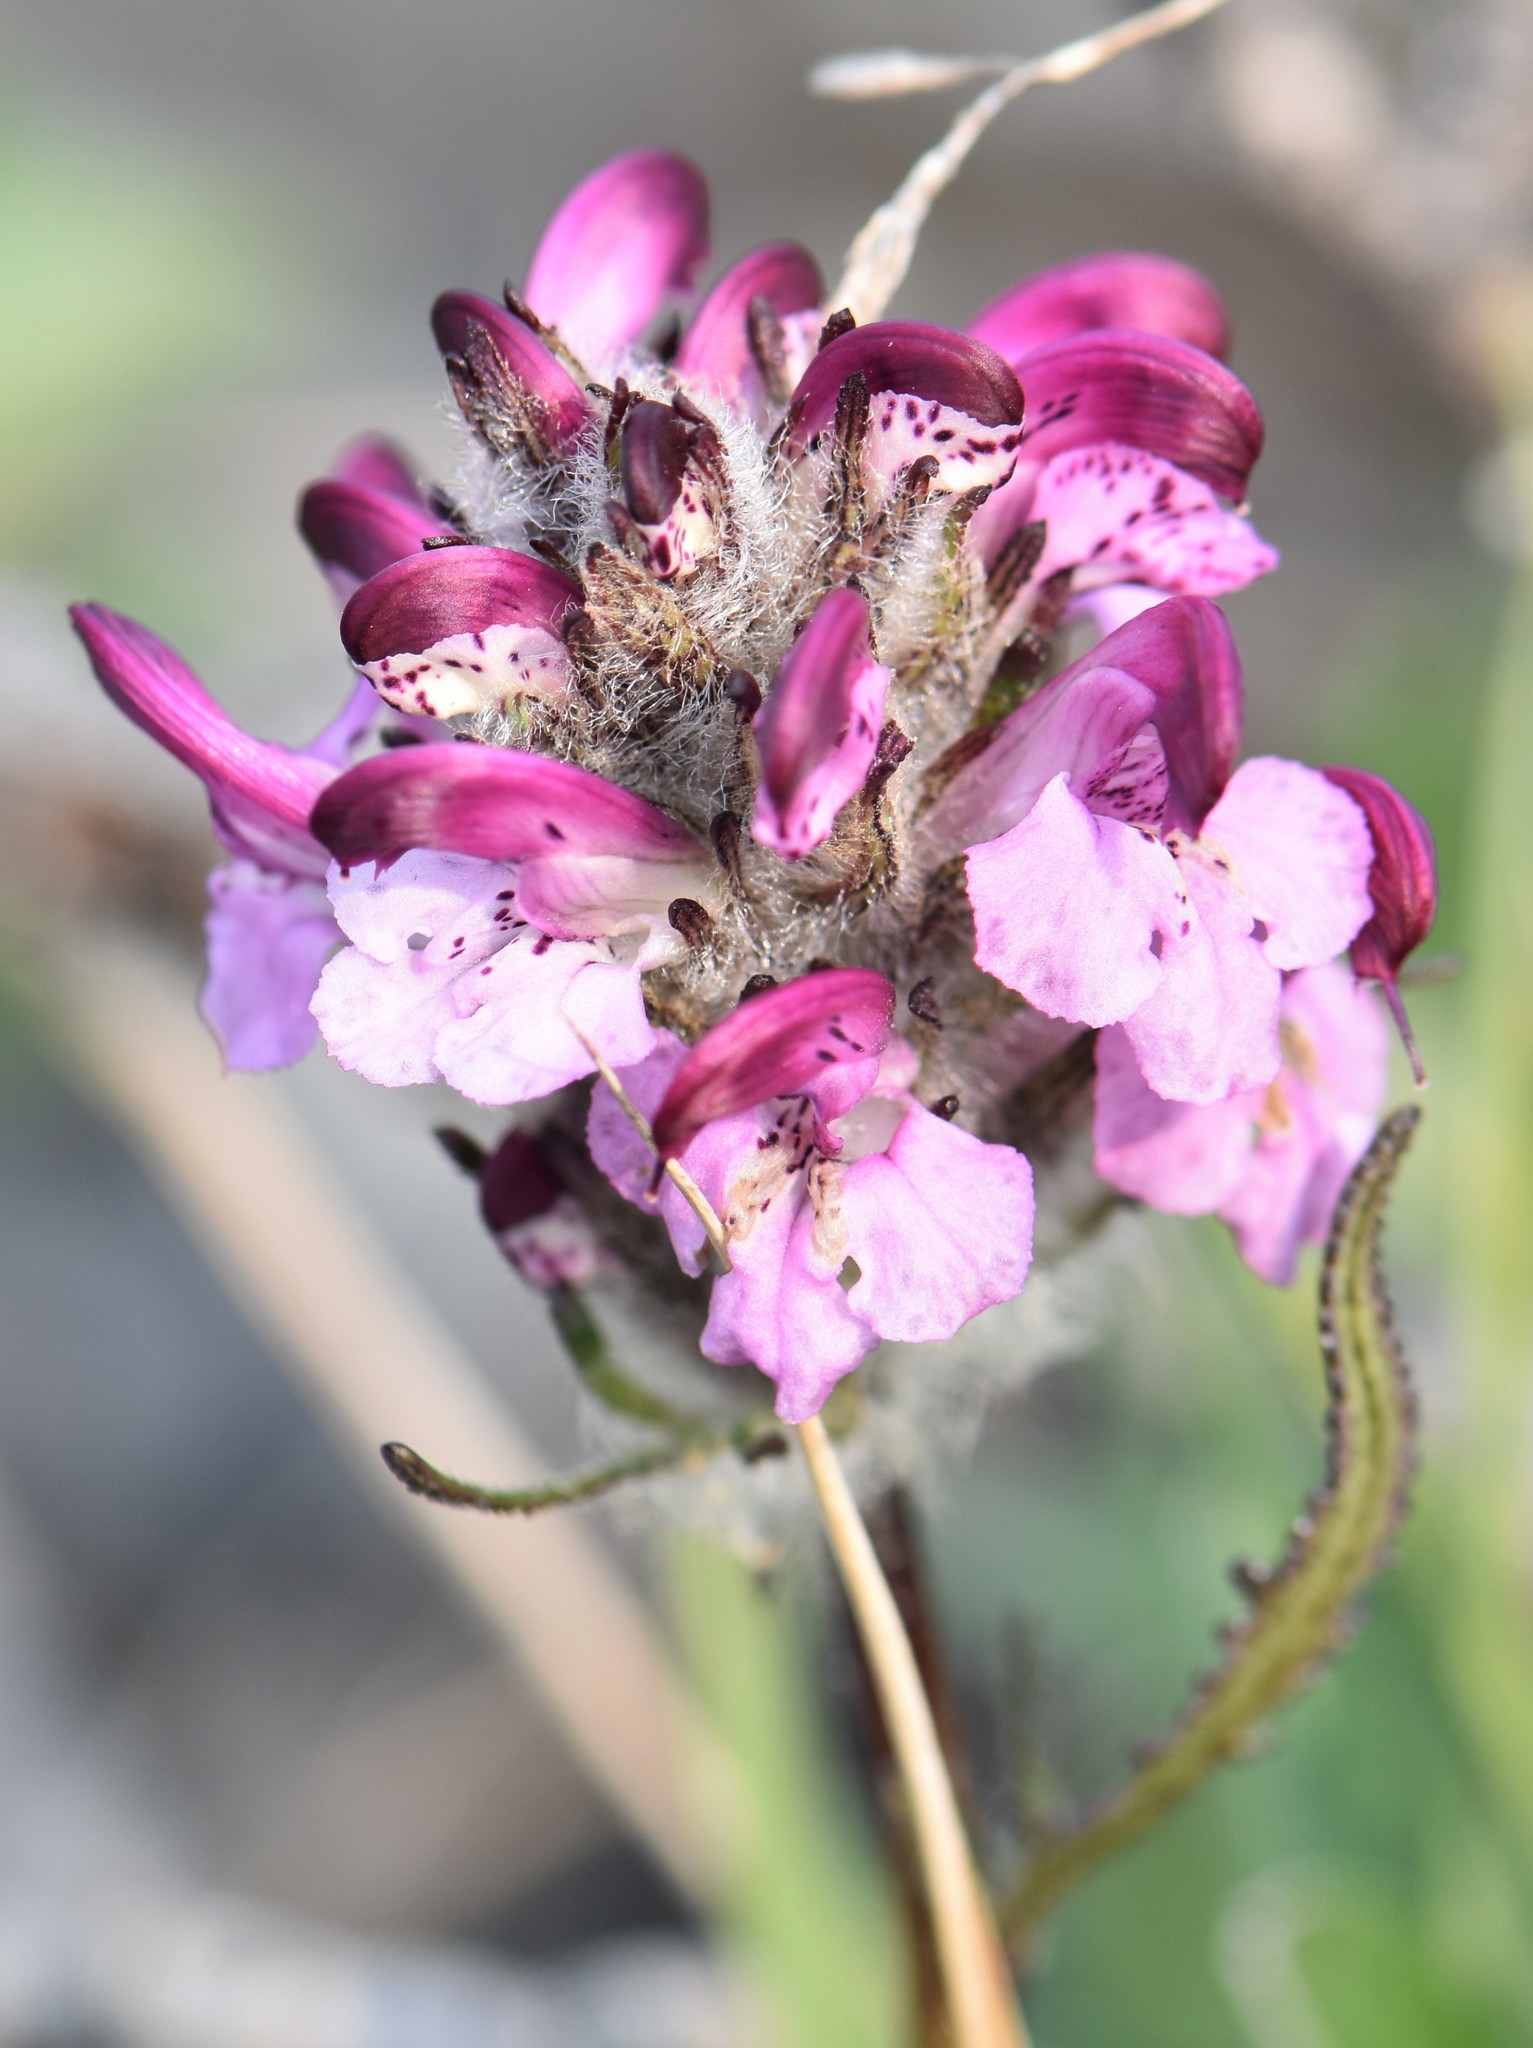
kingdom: Plantae
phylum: Tracheophyta
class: Magnoliopsida
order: Lamiales
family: Orobanchaceae
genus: Pedicularis
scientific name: Pedicularis novaiae-zemliae
